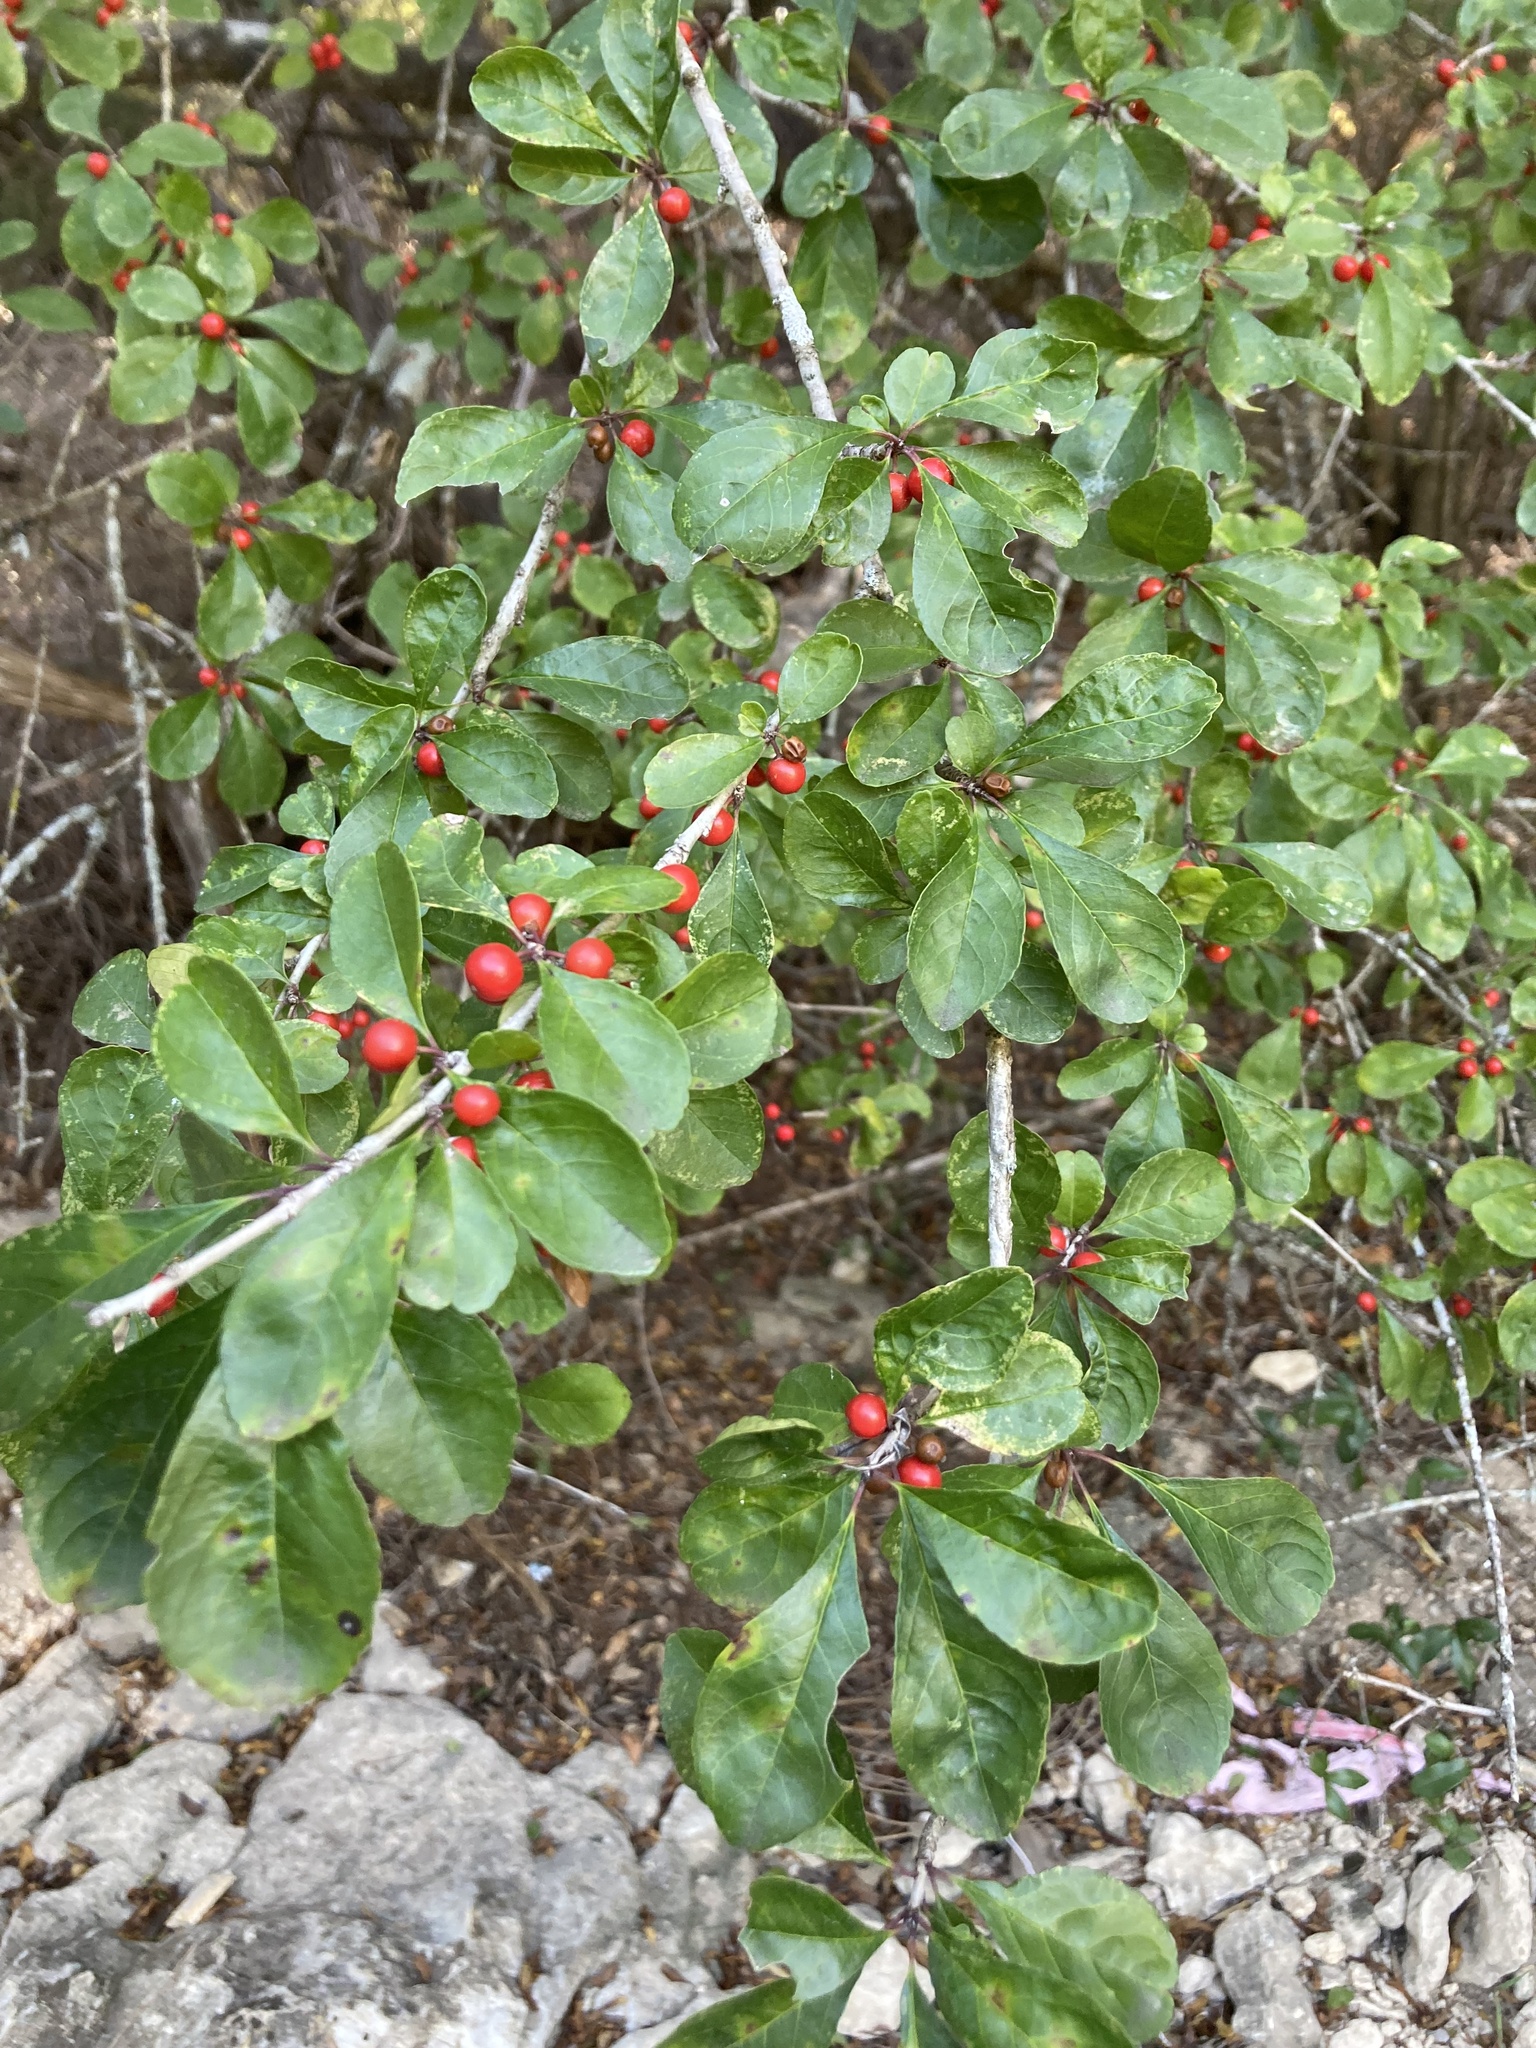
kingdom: Plantae
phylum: Tracheophyta
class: Magnoliopsida
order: Aquifoliales
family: Aquifoliaceae
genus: Ilex
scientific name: Ilex decidua
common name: Possum-haw
